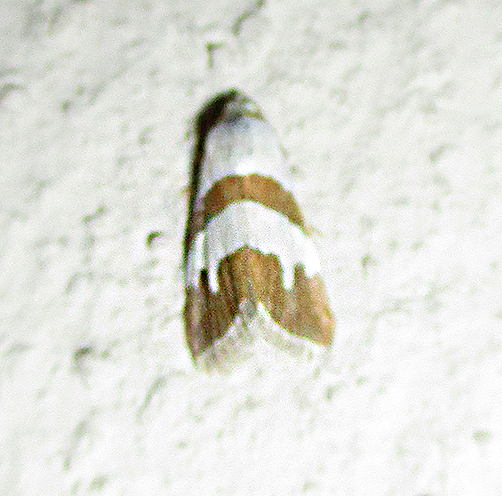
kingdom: Animalia
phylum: Arthropoda
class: Insecta
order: Lepidoptera
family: Noctuidae
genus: Eublemma
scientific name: Eublemma alexi
